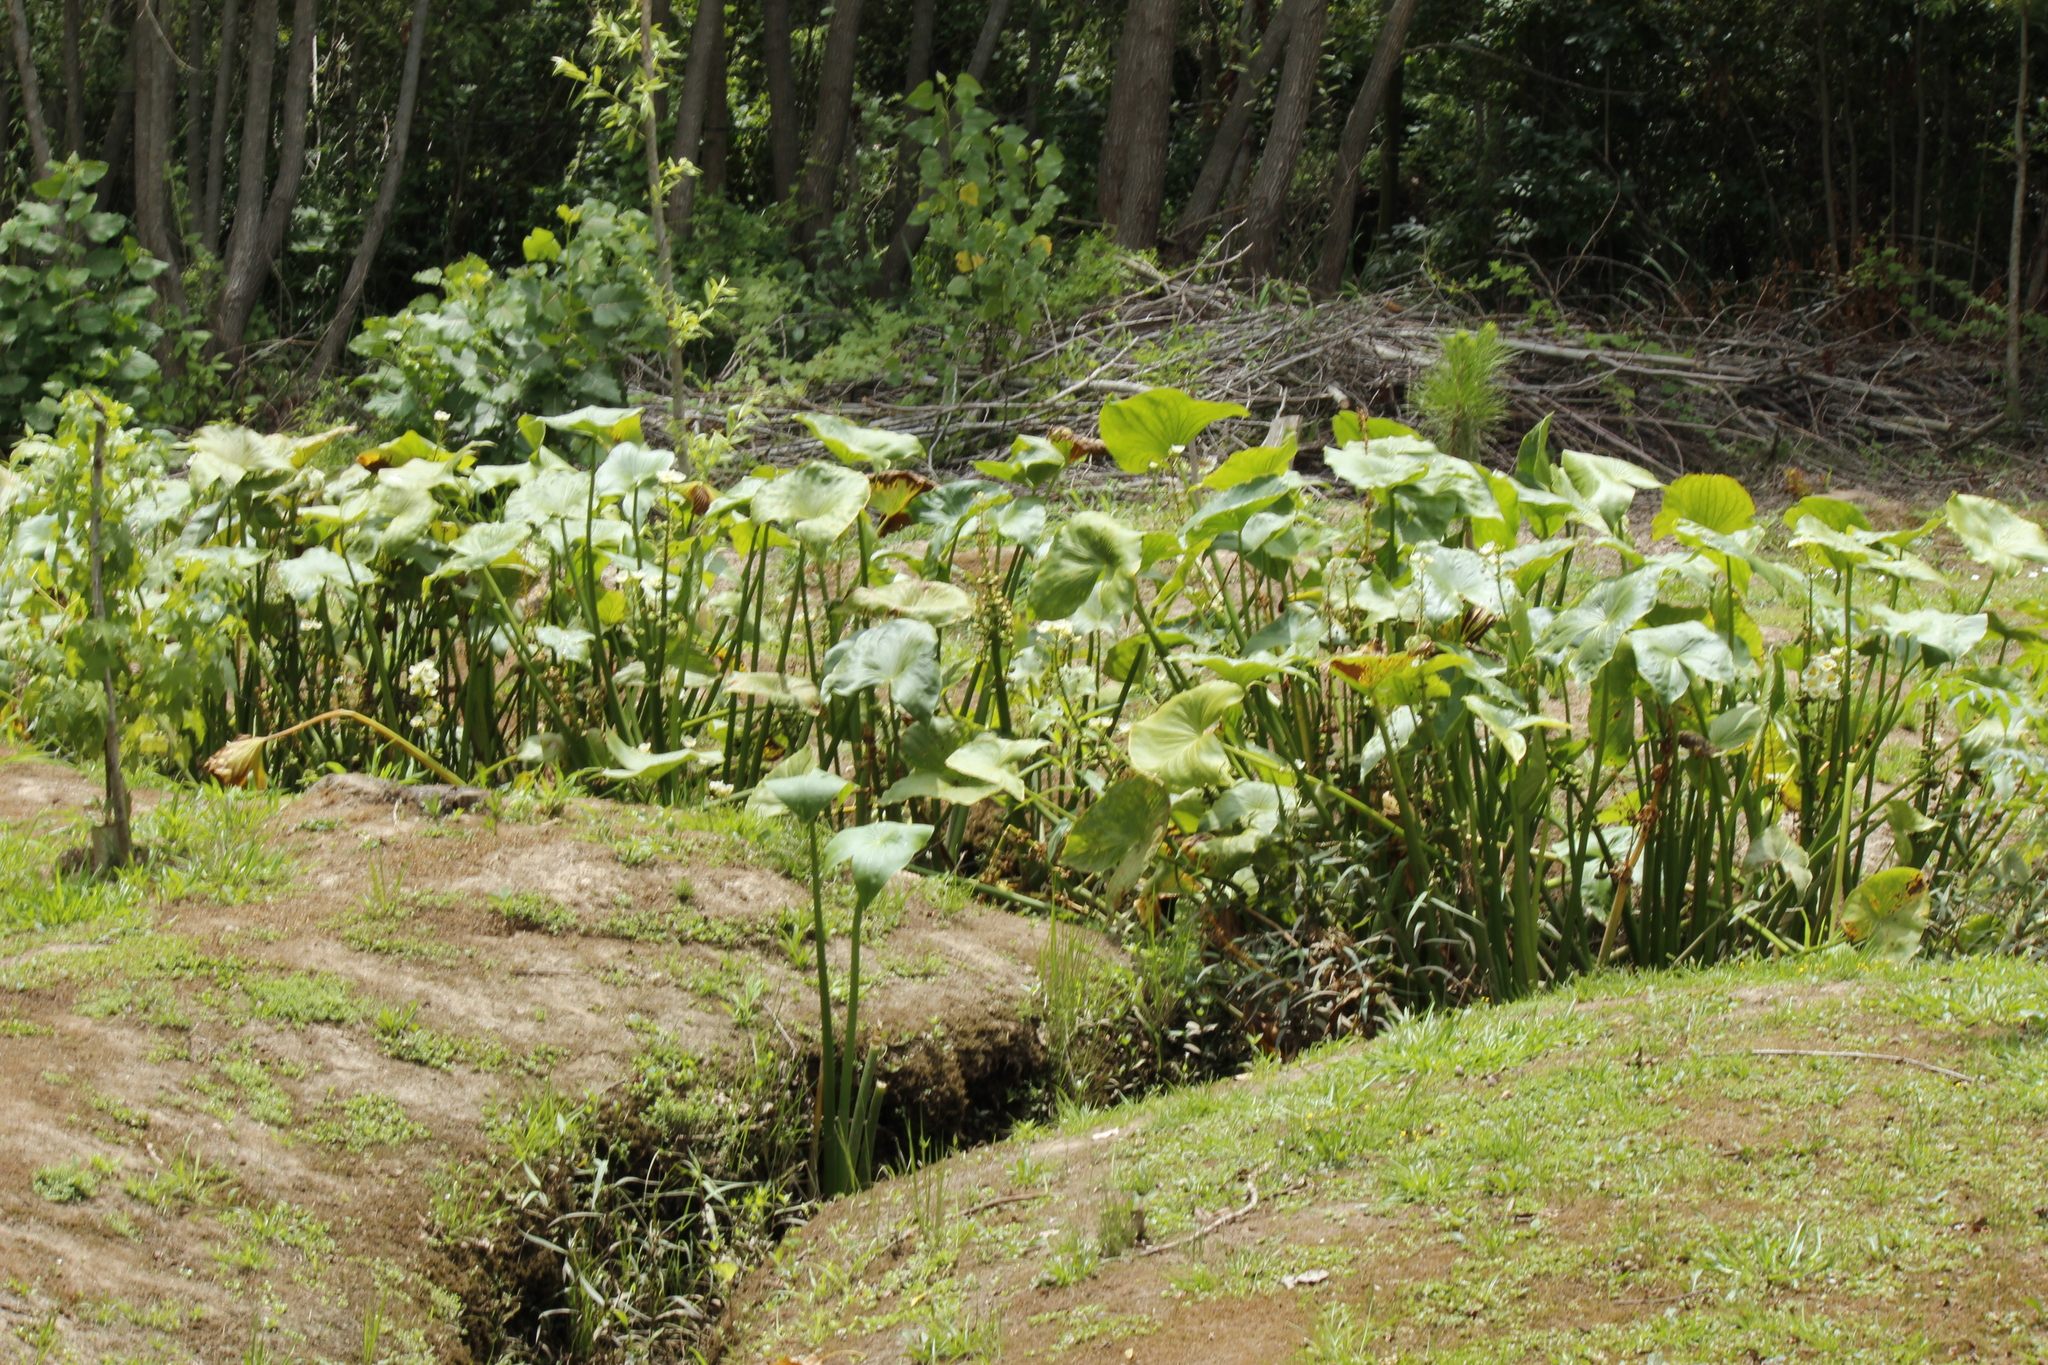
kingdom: Plantae
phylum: Tracheophyta
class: Liliopsida
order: Alismatales
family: Alismataceae
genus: Sagittaria
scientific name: Sagittaria montevidensis
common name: Giant arrowhead
